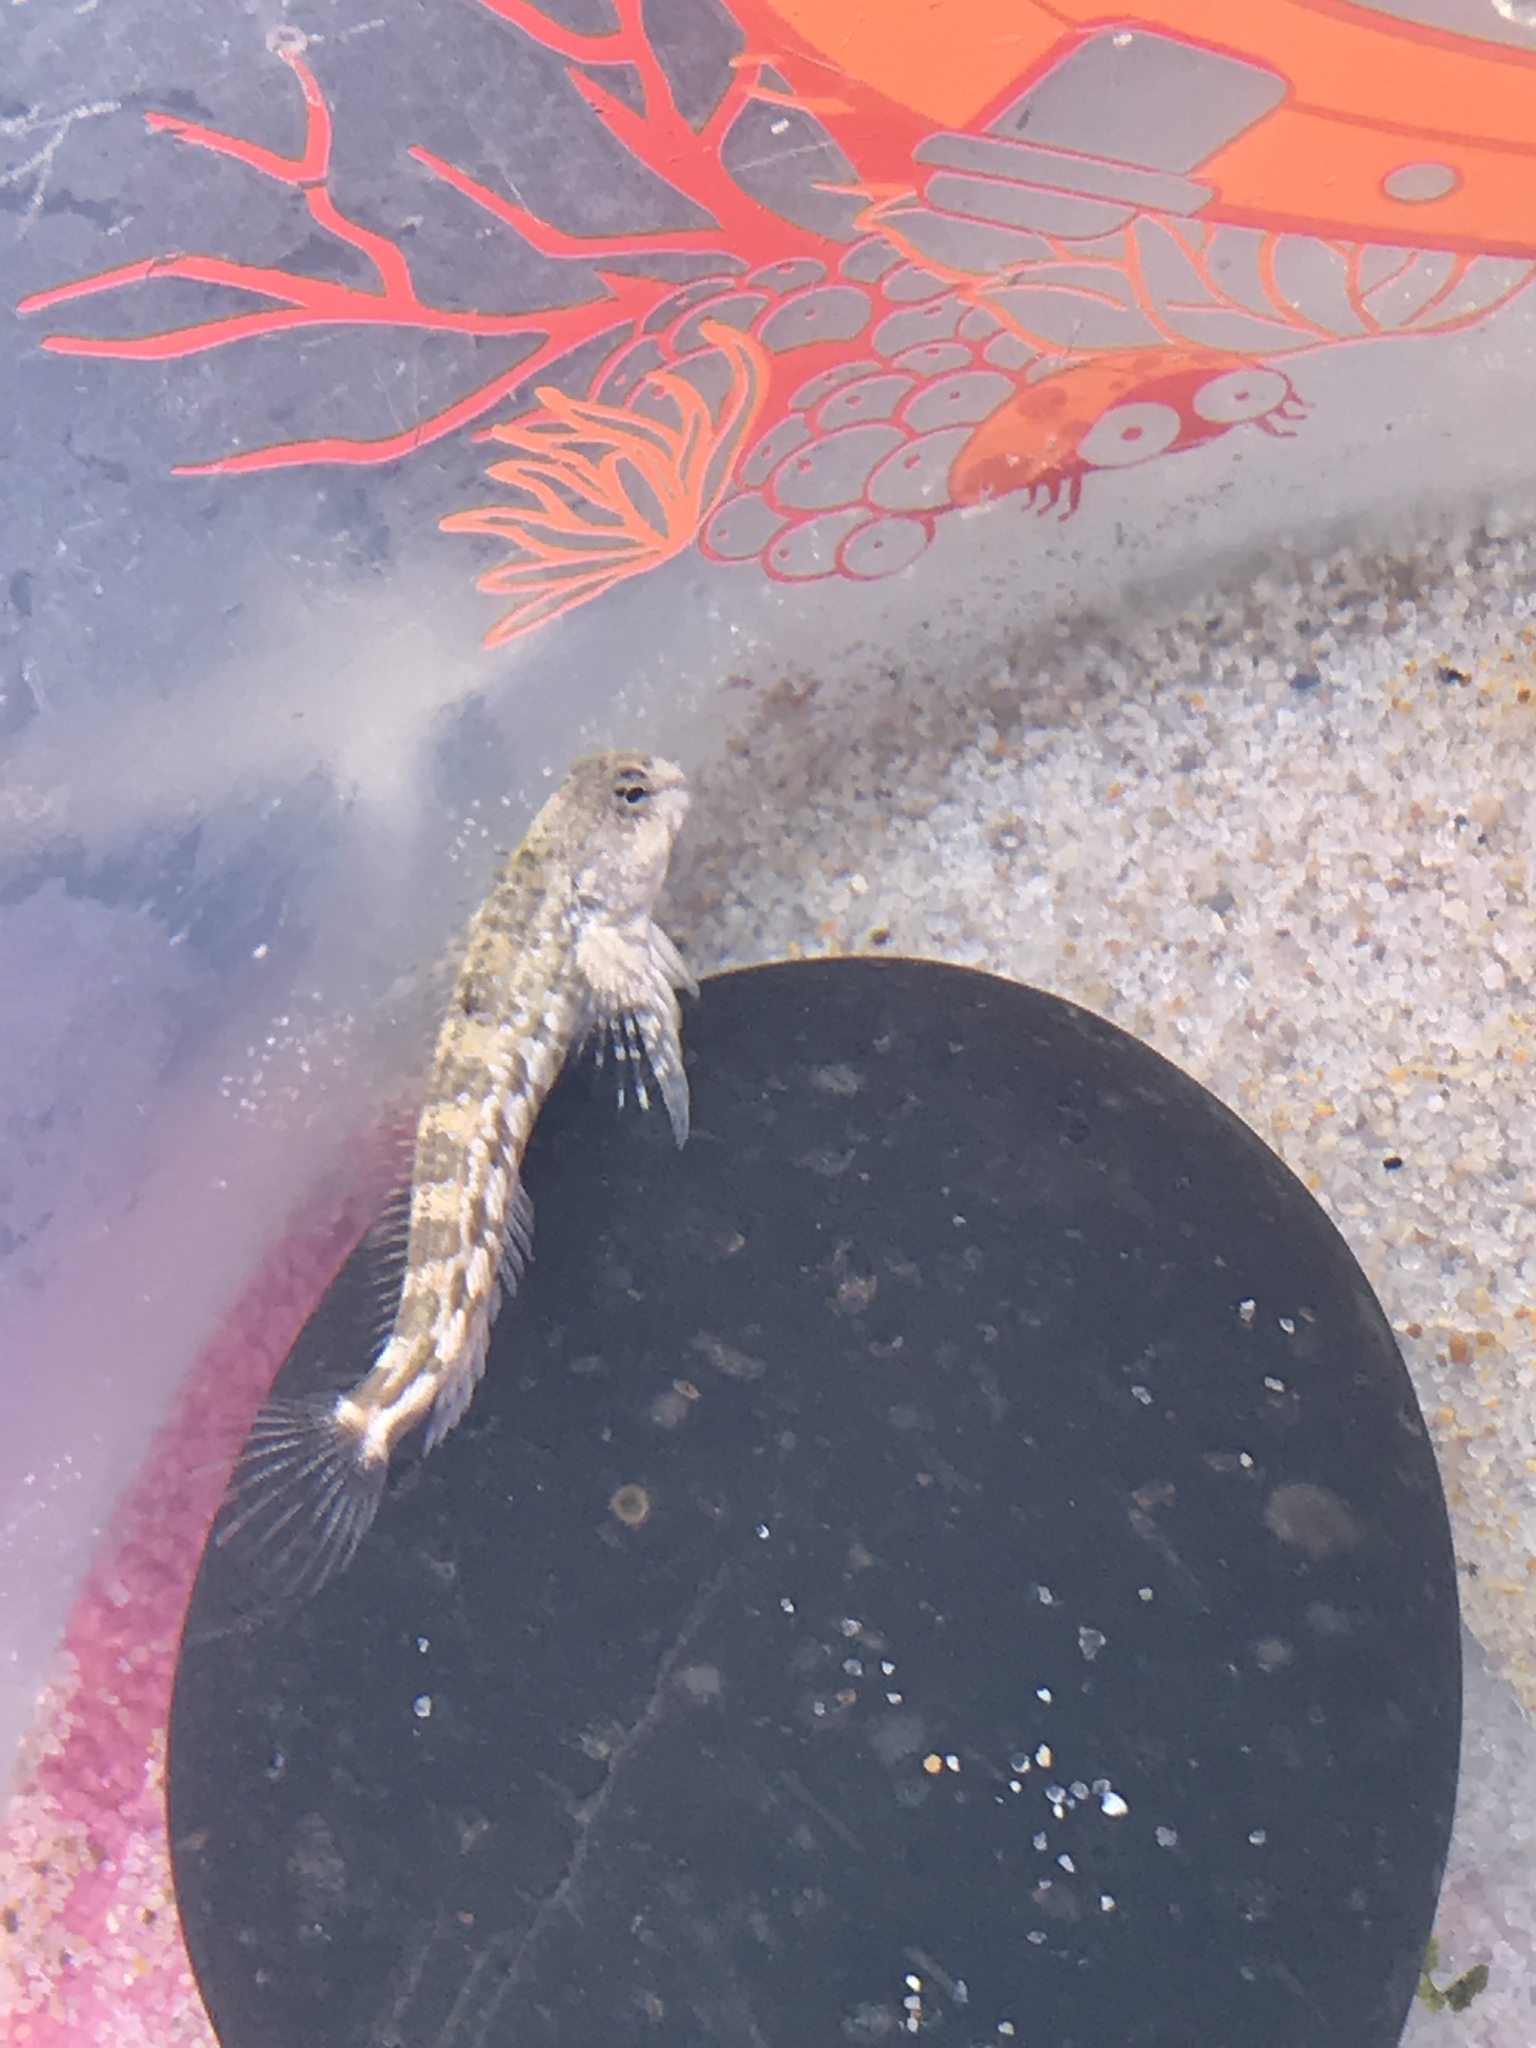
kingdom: Animalia
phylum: Chordata
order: Perciformes
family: Blenniidae
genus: Coryphoblennius
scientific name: Coryphoblennius galerita
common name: Montagu's blenny
